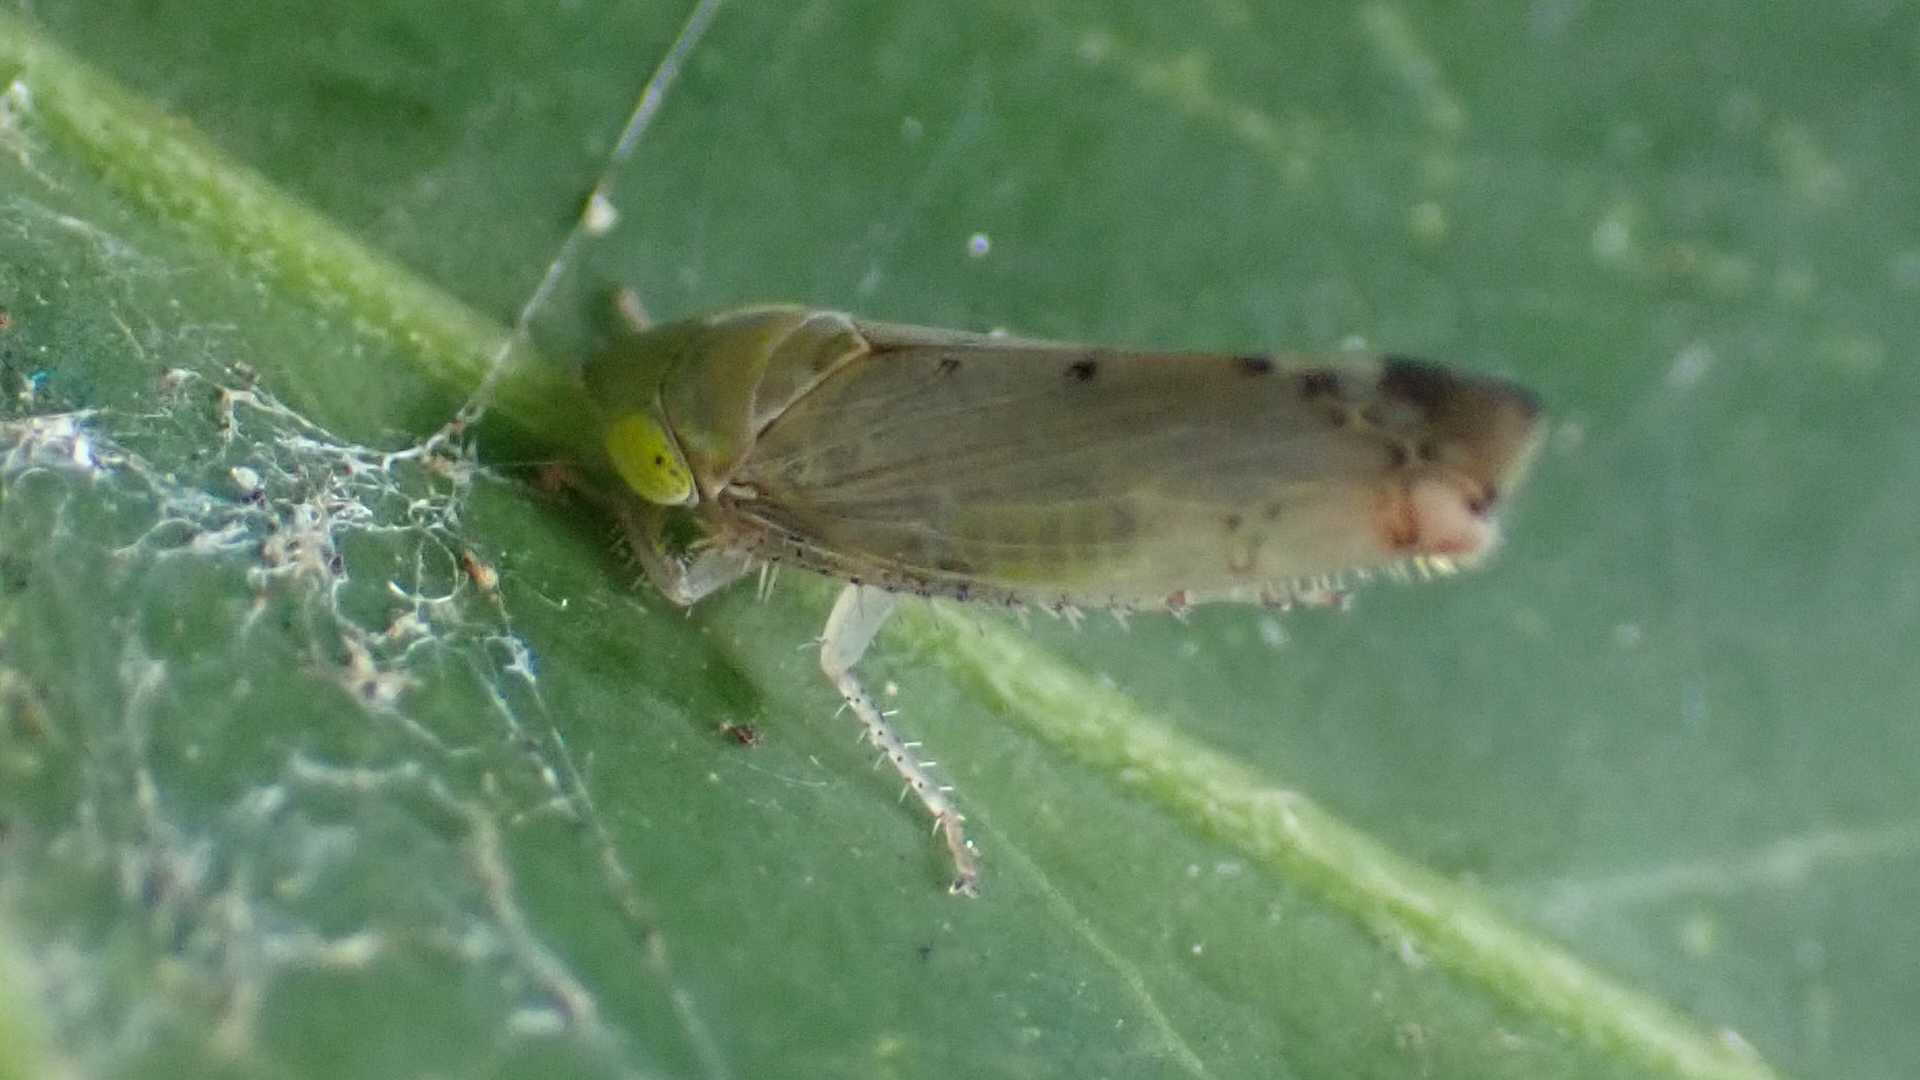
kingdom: Animalia
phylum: Arthropoda
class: Insecta
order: Hemiptera
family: Cicadellidae
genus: Synophropsis
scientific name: Synophropsis lauri
